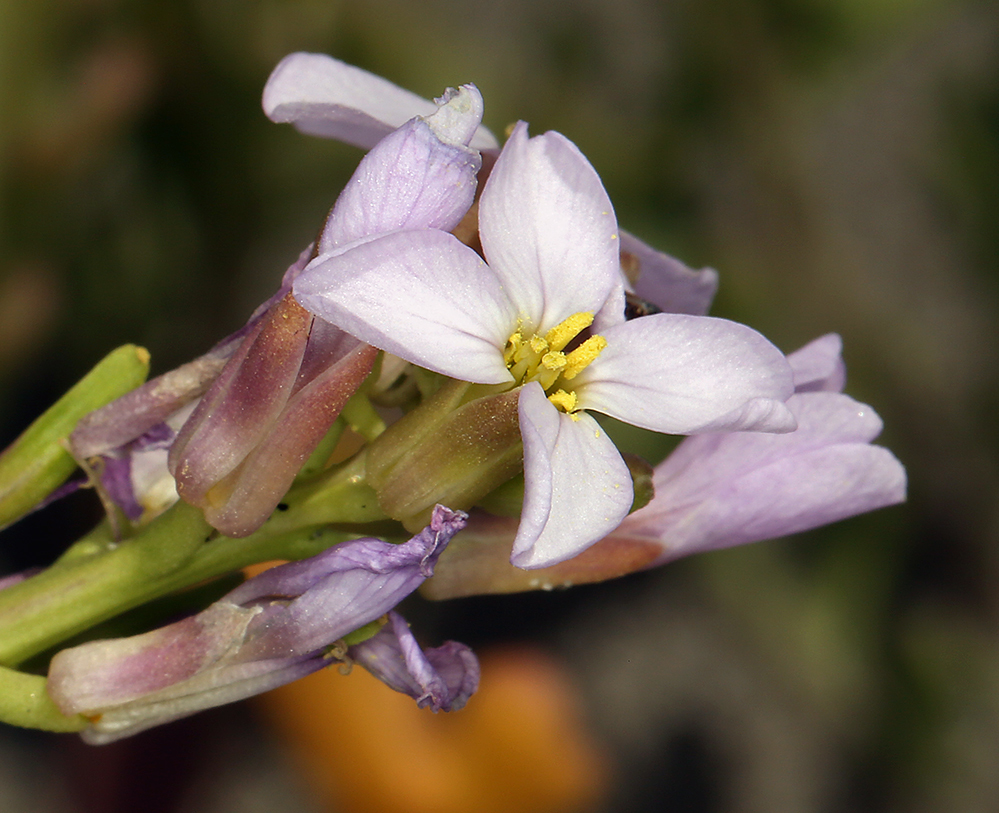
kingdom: Plantae
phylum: Tracheophyta
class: Magnoliopsida
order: Brassicales
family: Brassicaceae
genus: Cakile
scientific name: Cakile maritima
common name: Sea rocket
